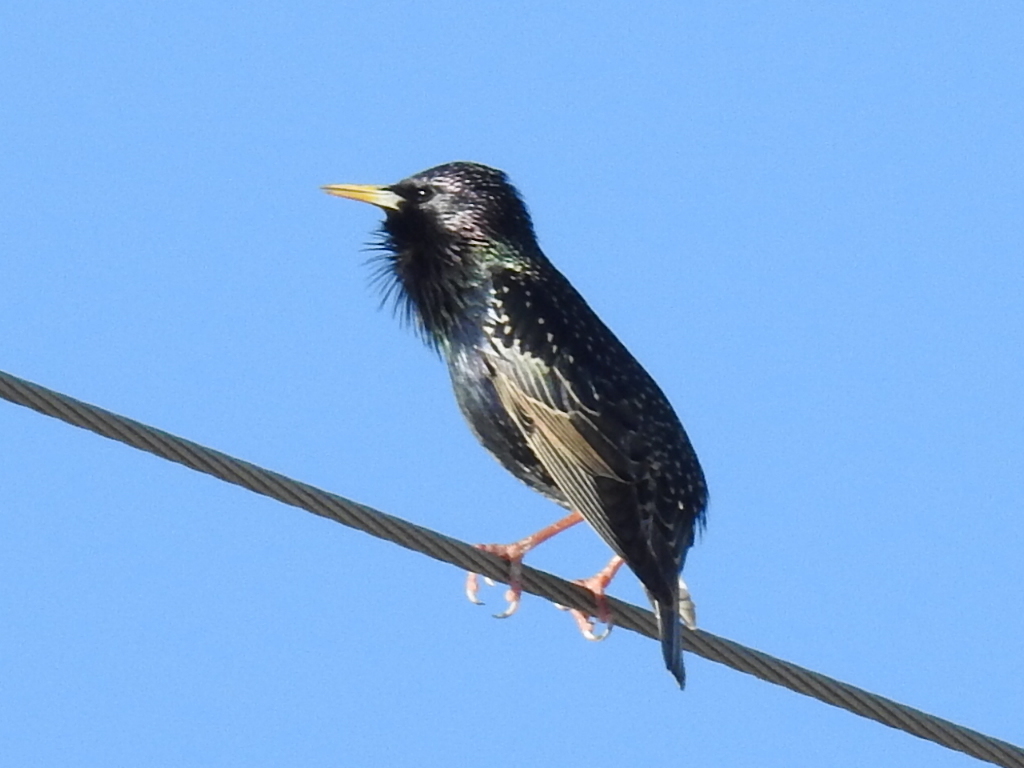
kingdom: Animalia
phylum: Chordata
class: Aves
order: Passeriformes
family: Sturnidae
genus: Sturnus
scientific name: Sturnus vulgaris
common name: Common starling
